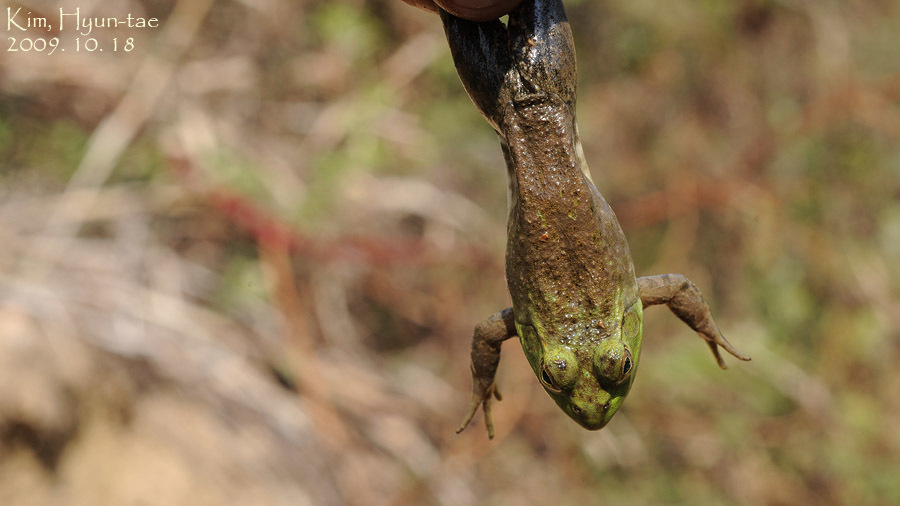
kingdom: Animalia
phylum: Chordata
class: Amphibia
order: Anura
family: Ranidae
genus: Lithobates
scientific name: Lithobates catesbeianus
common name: American bullfrog
